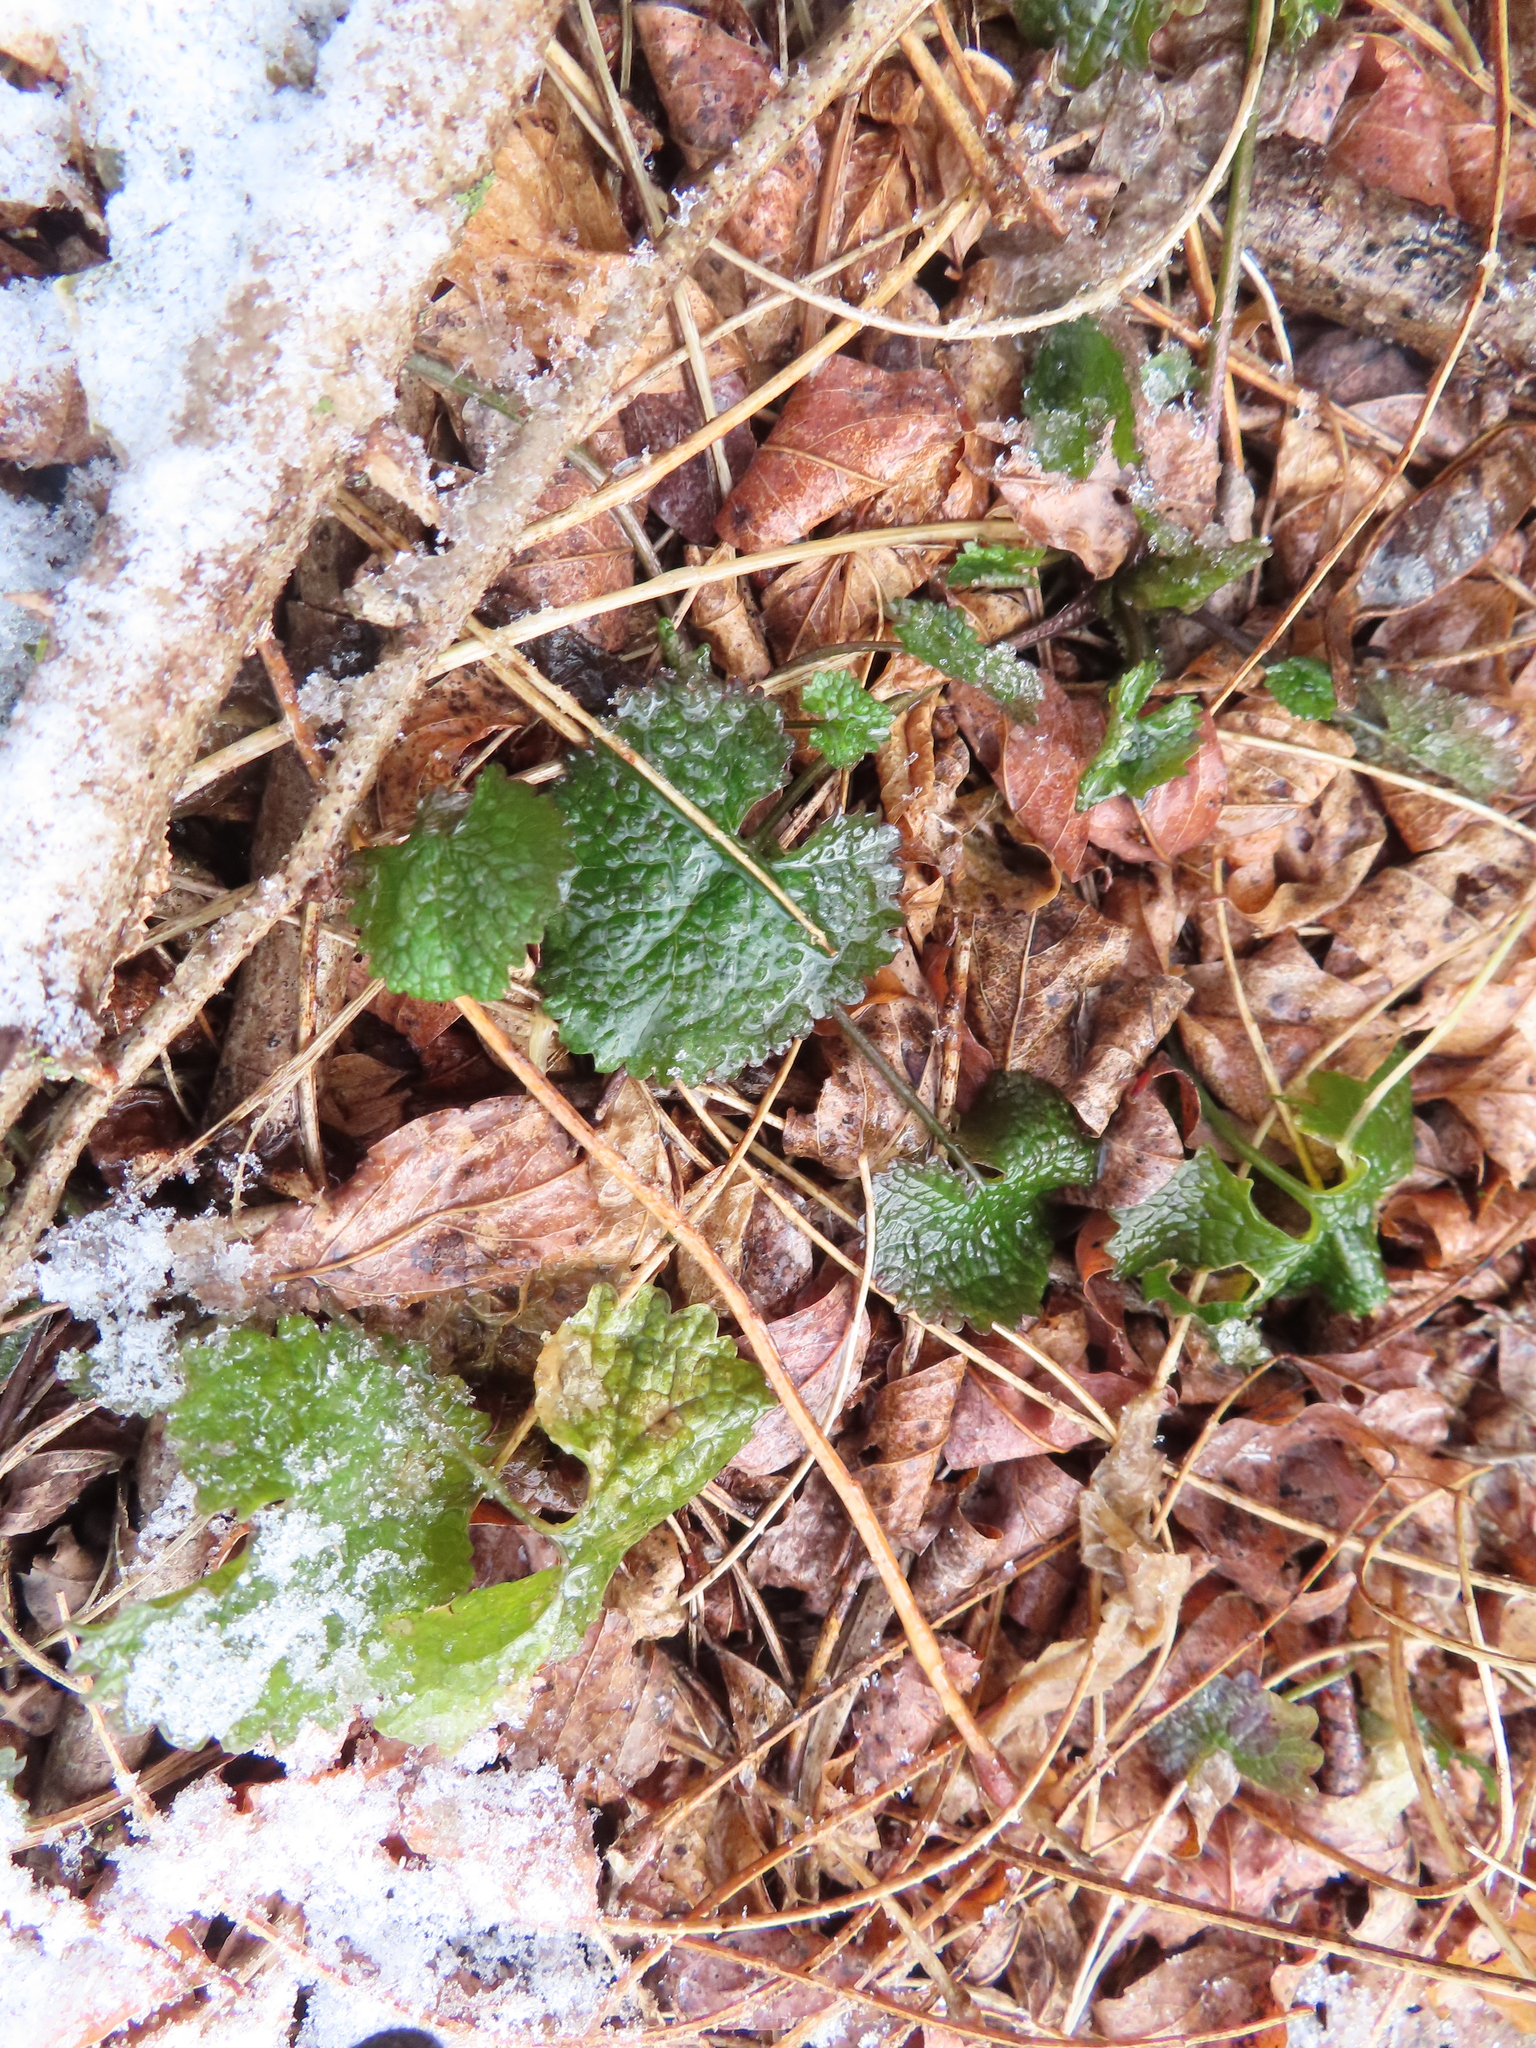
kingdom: Plantae
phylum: Tracheophyta
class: Magnoliopsida
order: Brassicales
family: Brassicaceae
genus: Alliaria
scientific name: Alliaria petiolata
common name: Garlic mustard
